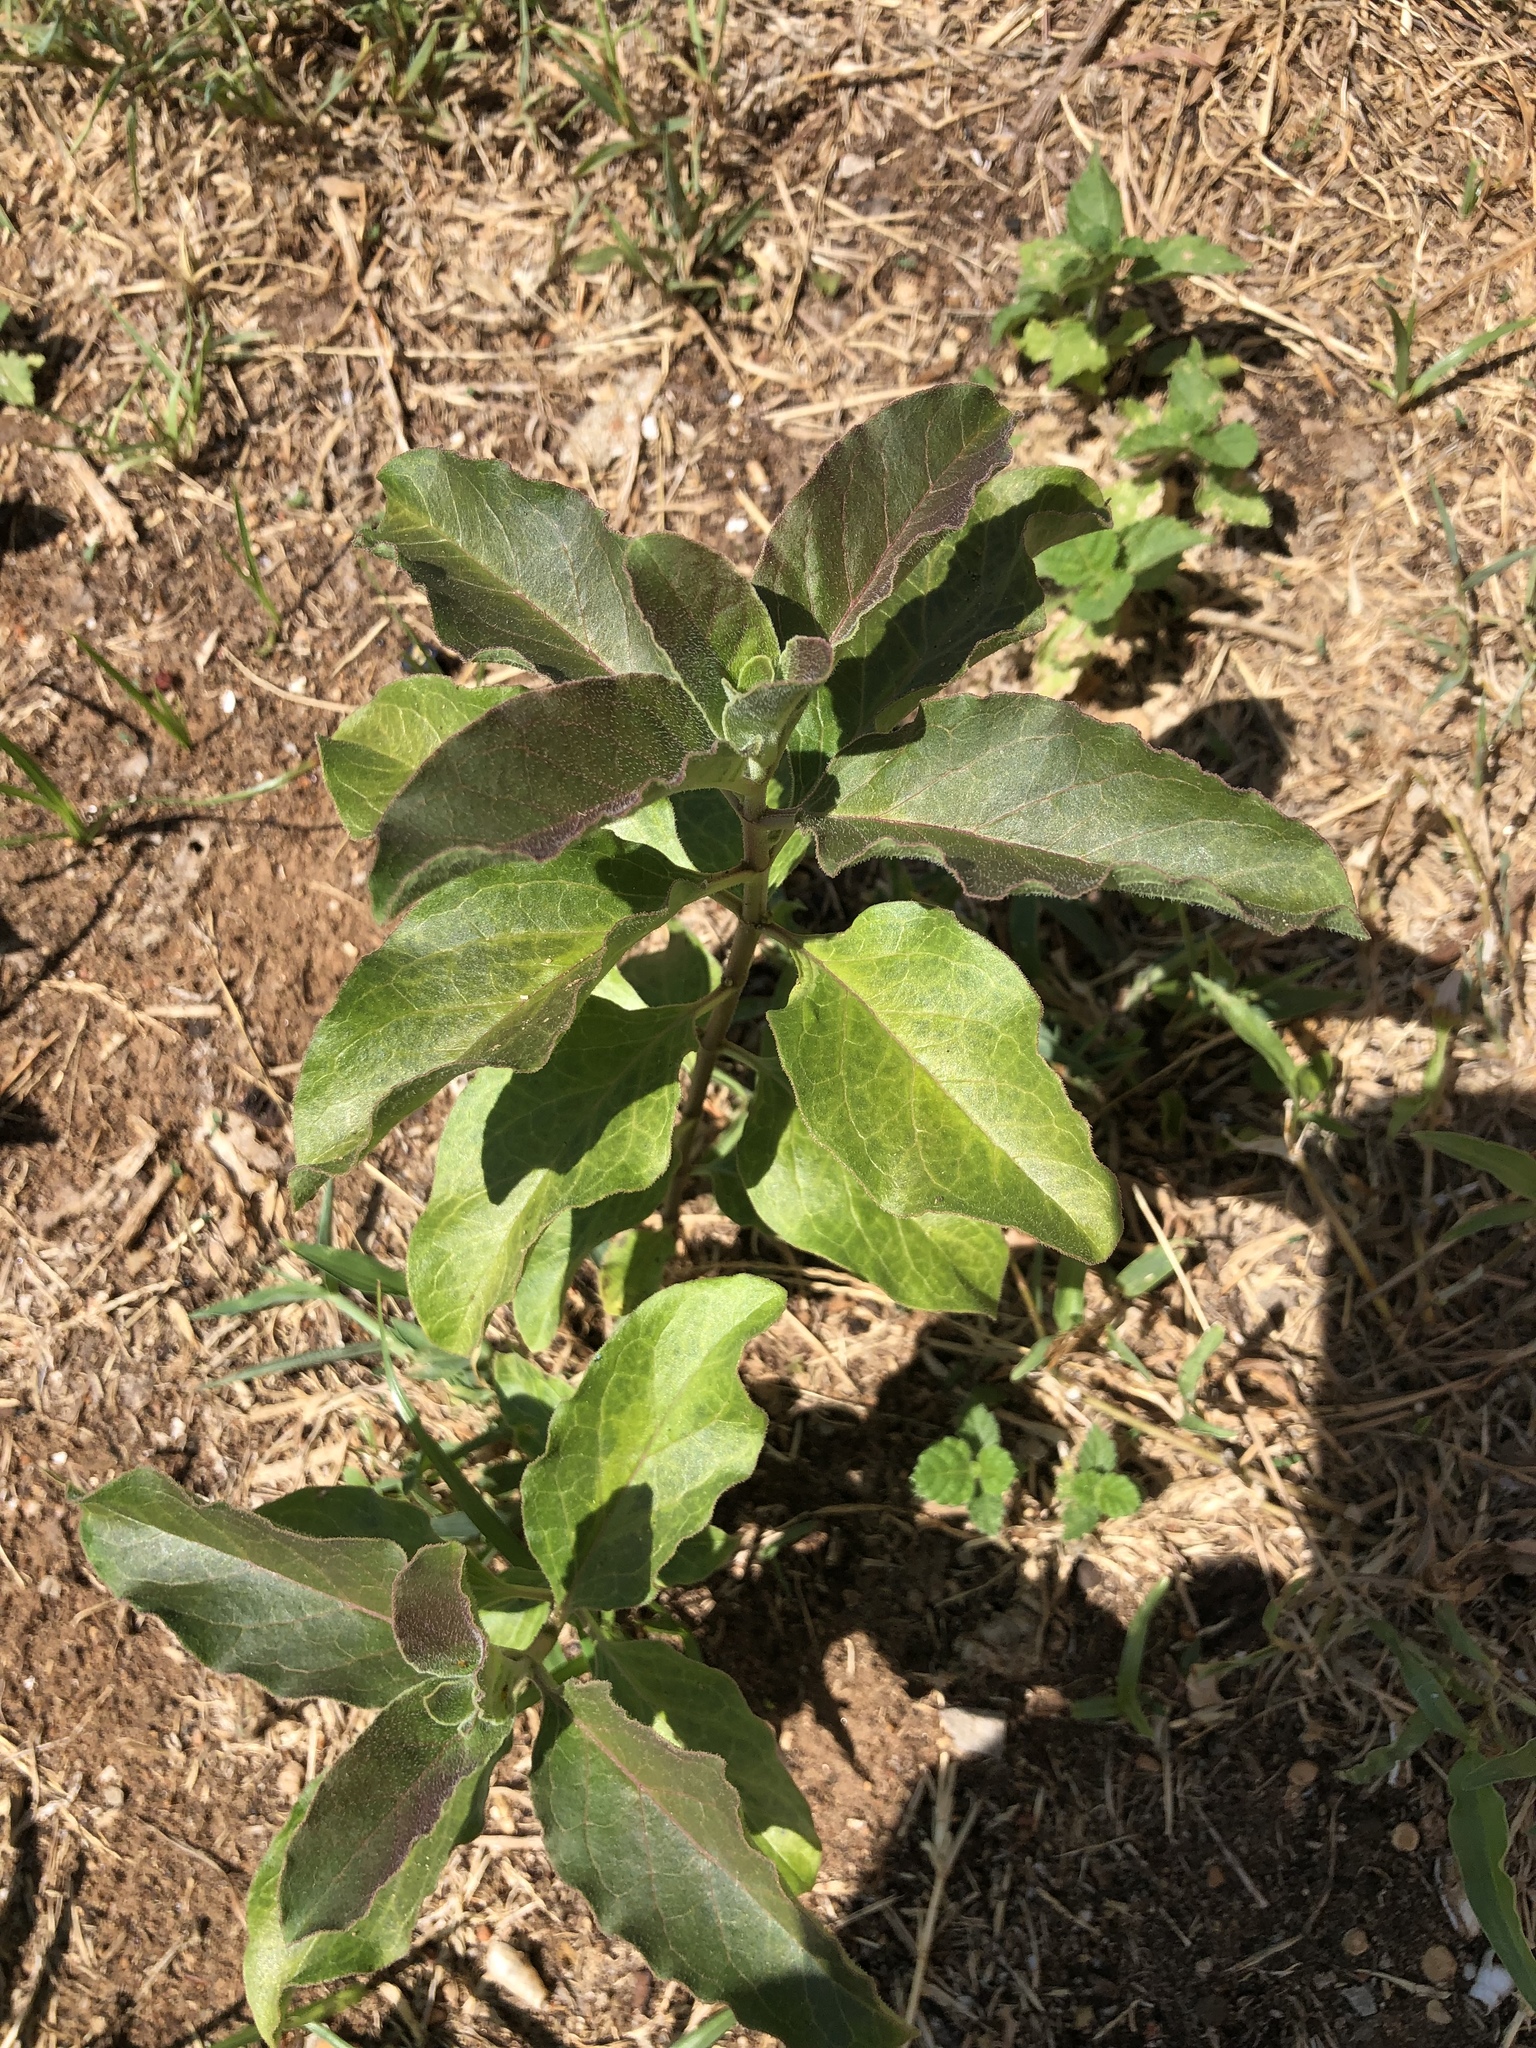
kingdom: Plantae
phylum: Tracheophyta
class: Magnoliopsida
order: Gentianales
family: Apocynaceae
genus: Asclepias
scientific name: Asclepias oenotheroides
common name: Zizotes milkweed
